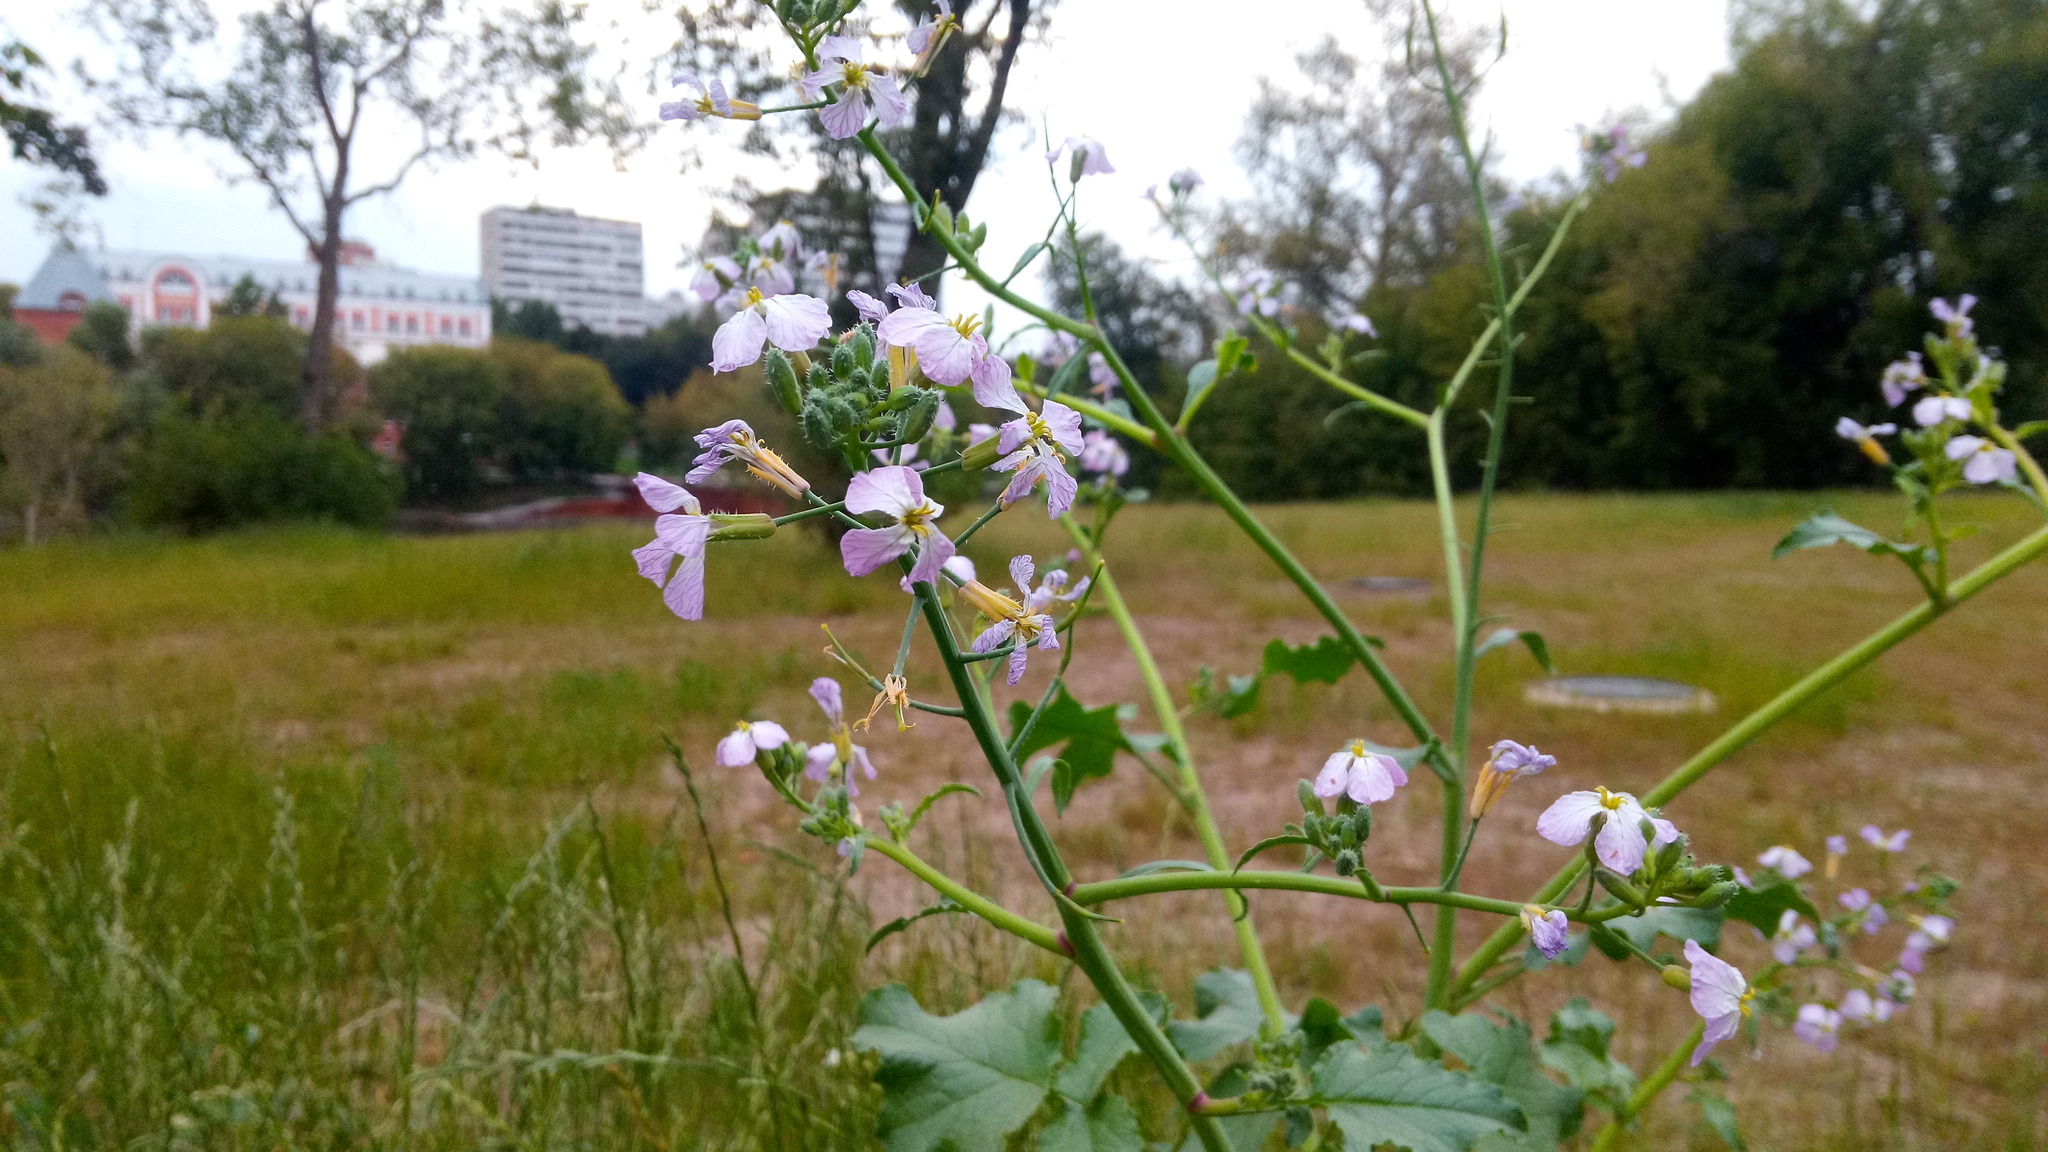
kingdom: Plantae
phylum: Tracheophyta
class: Magnoliopsida
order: Brassicales
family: Brassicaceae
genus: Raphanus
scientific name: Raphanus sativus
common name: Cultivated radish
